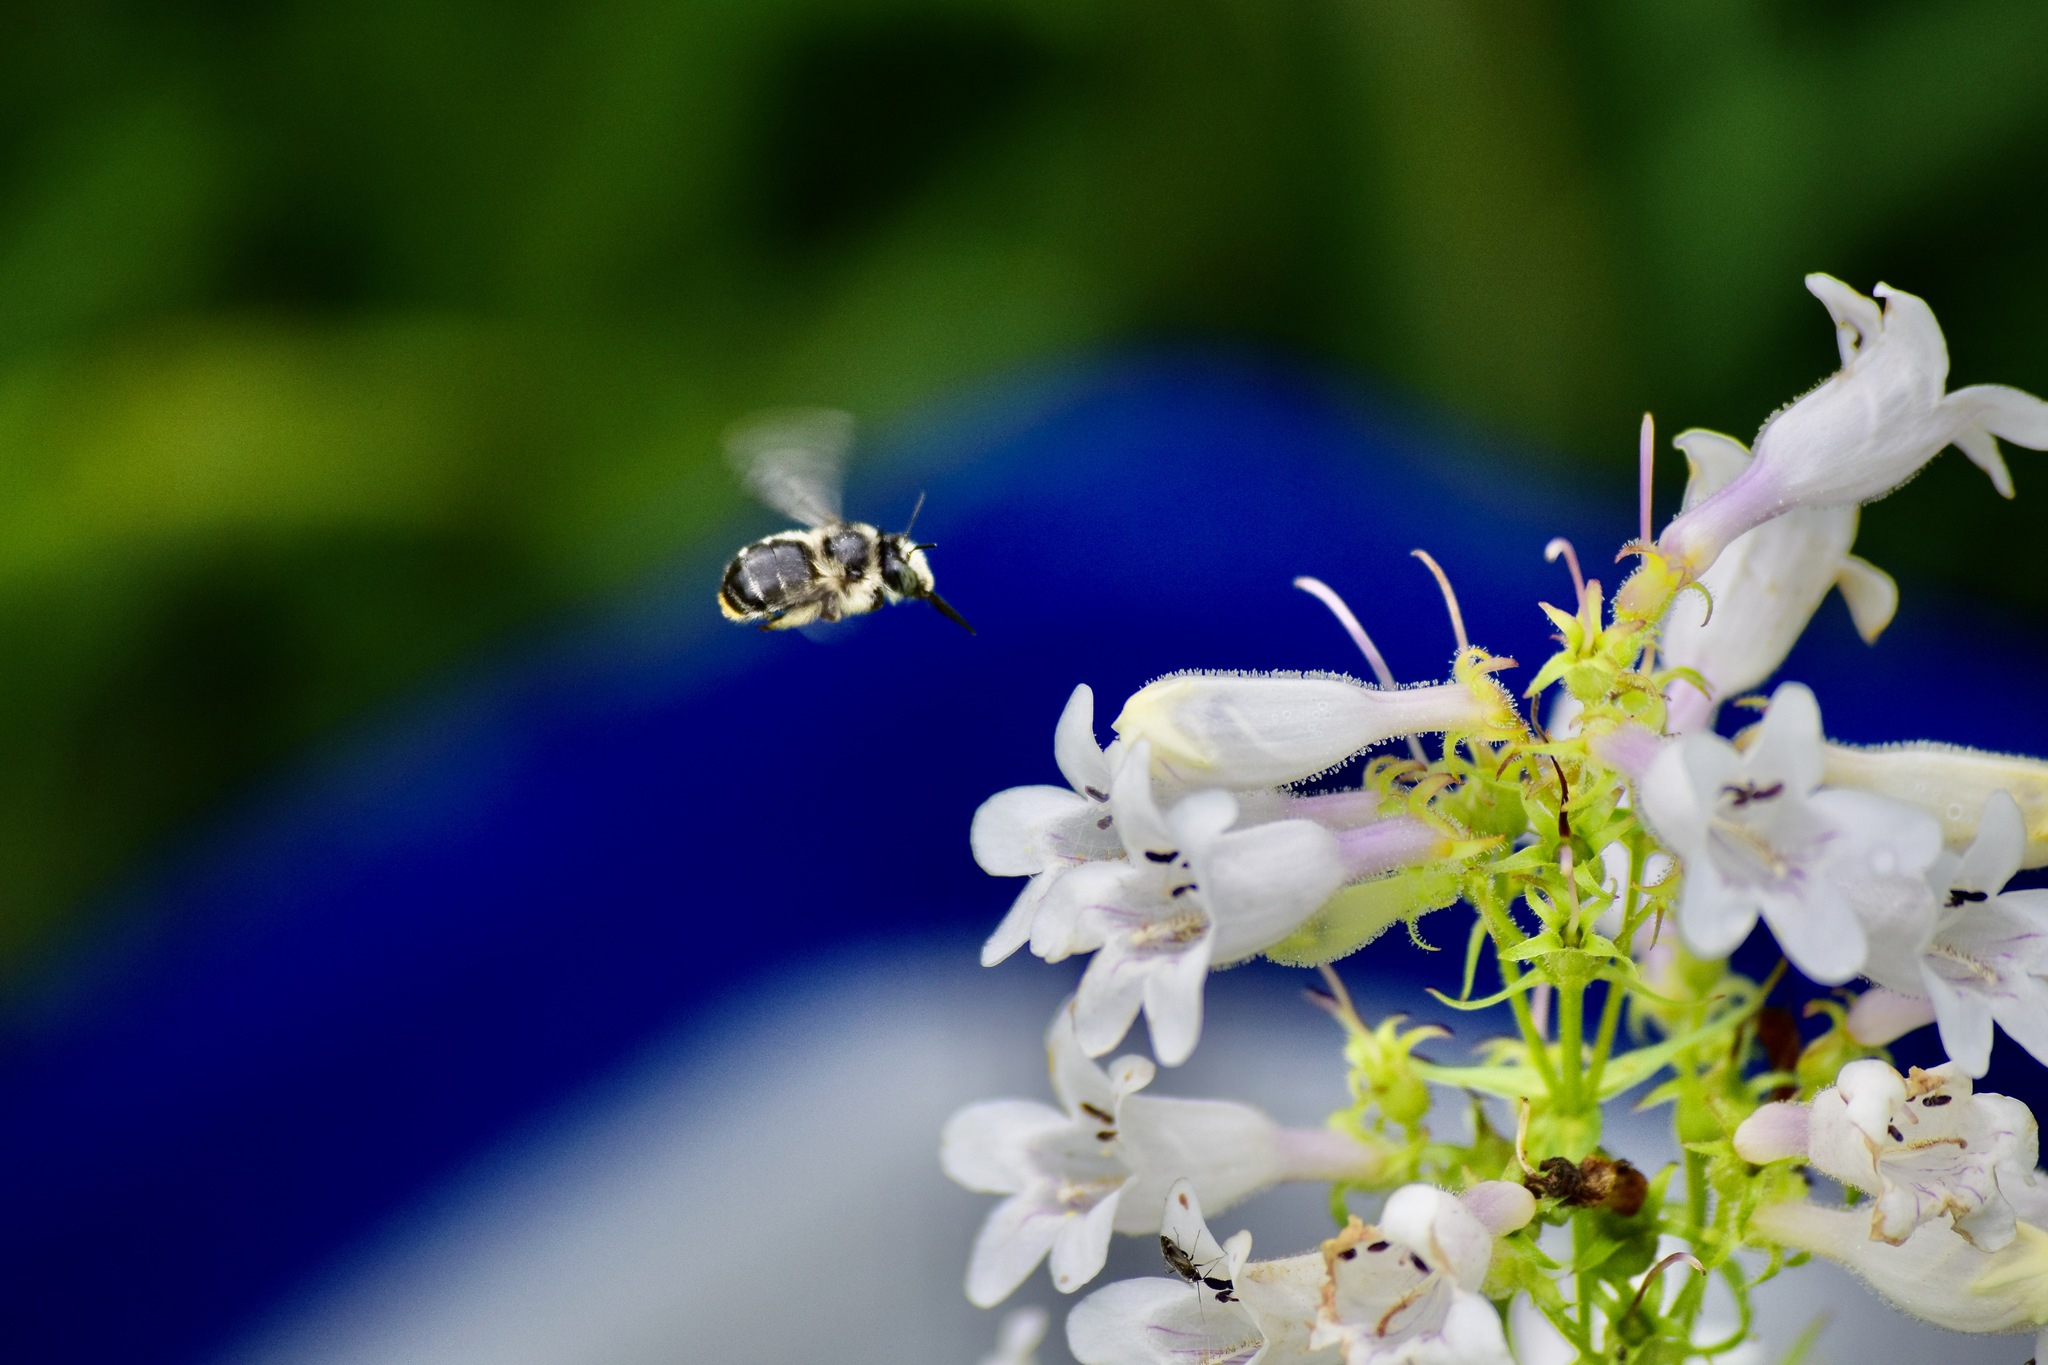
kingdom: Animalia
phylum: Arthropoda
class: Insecta
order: Hymenoptera
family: Apidae
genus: Anthophora
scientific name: Anthophora terminalis
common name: Orange-tipped wood-digger bee
